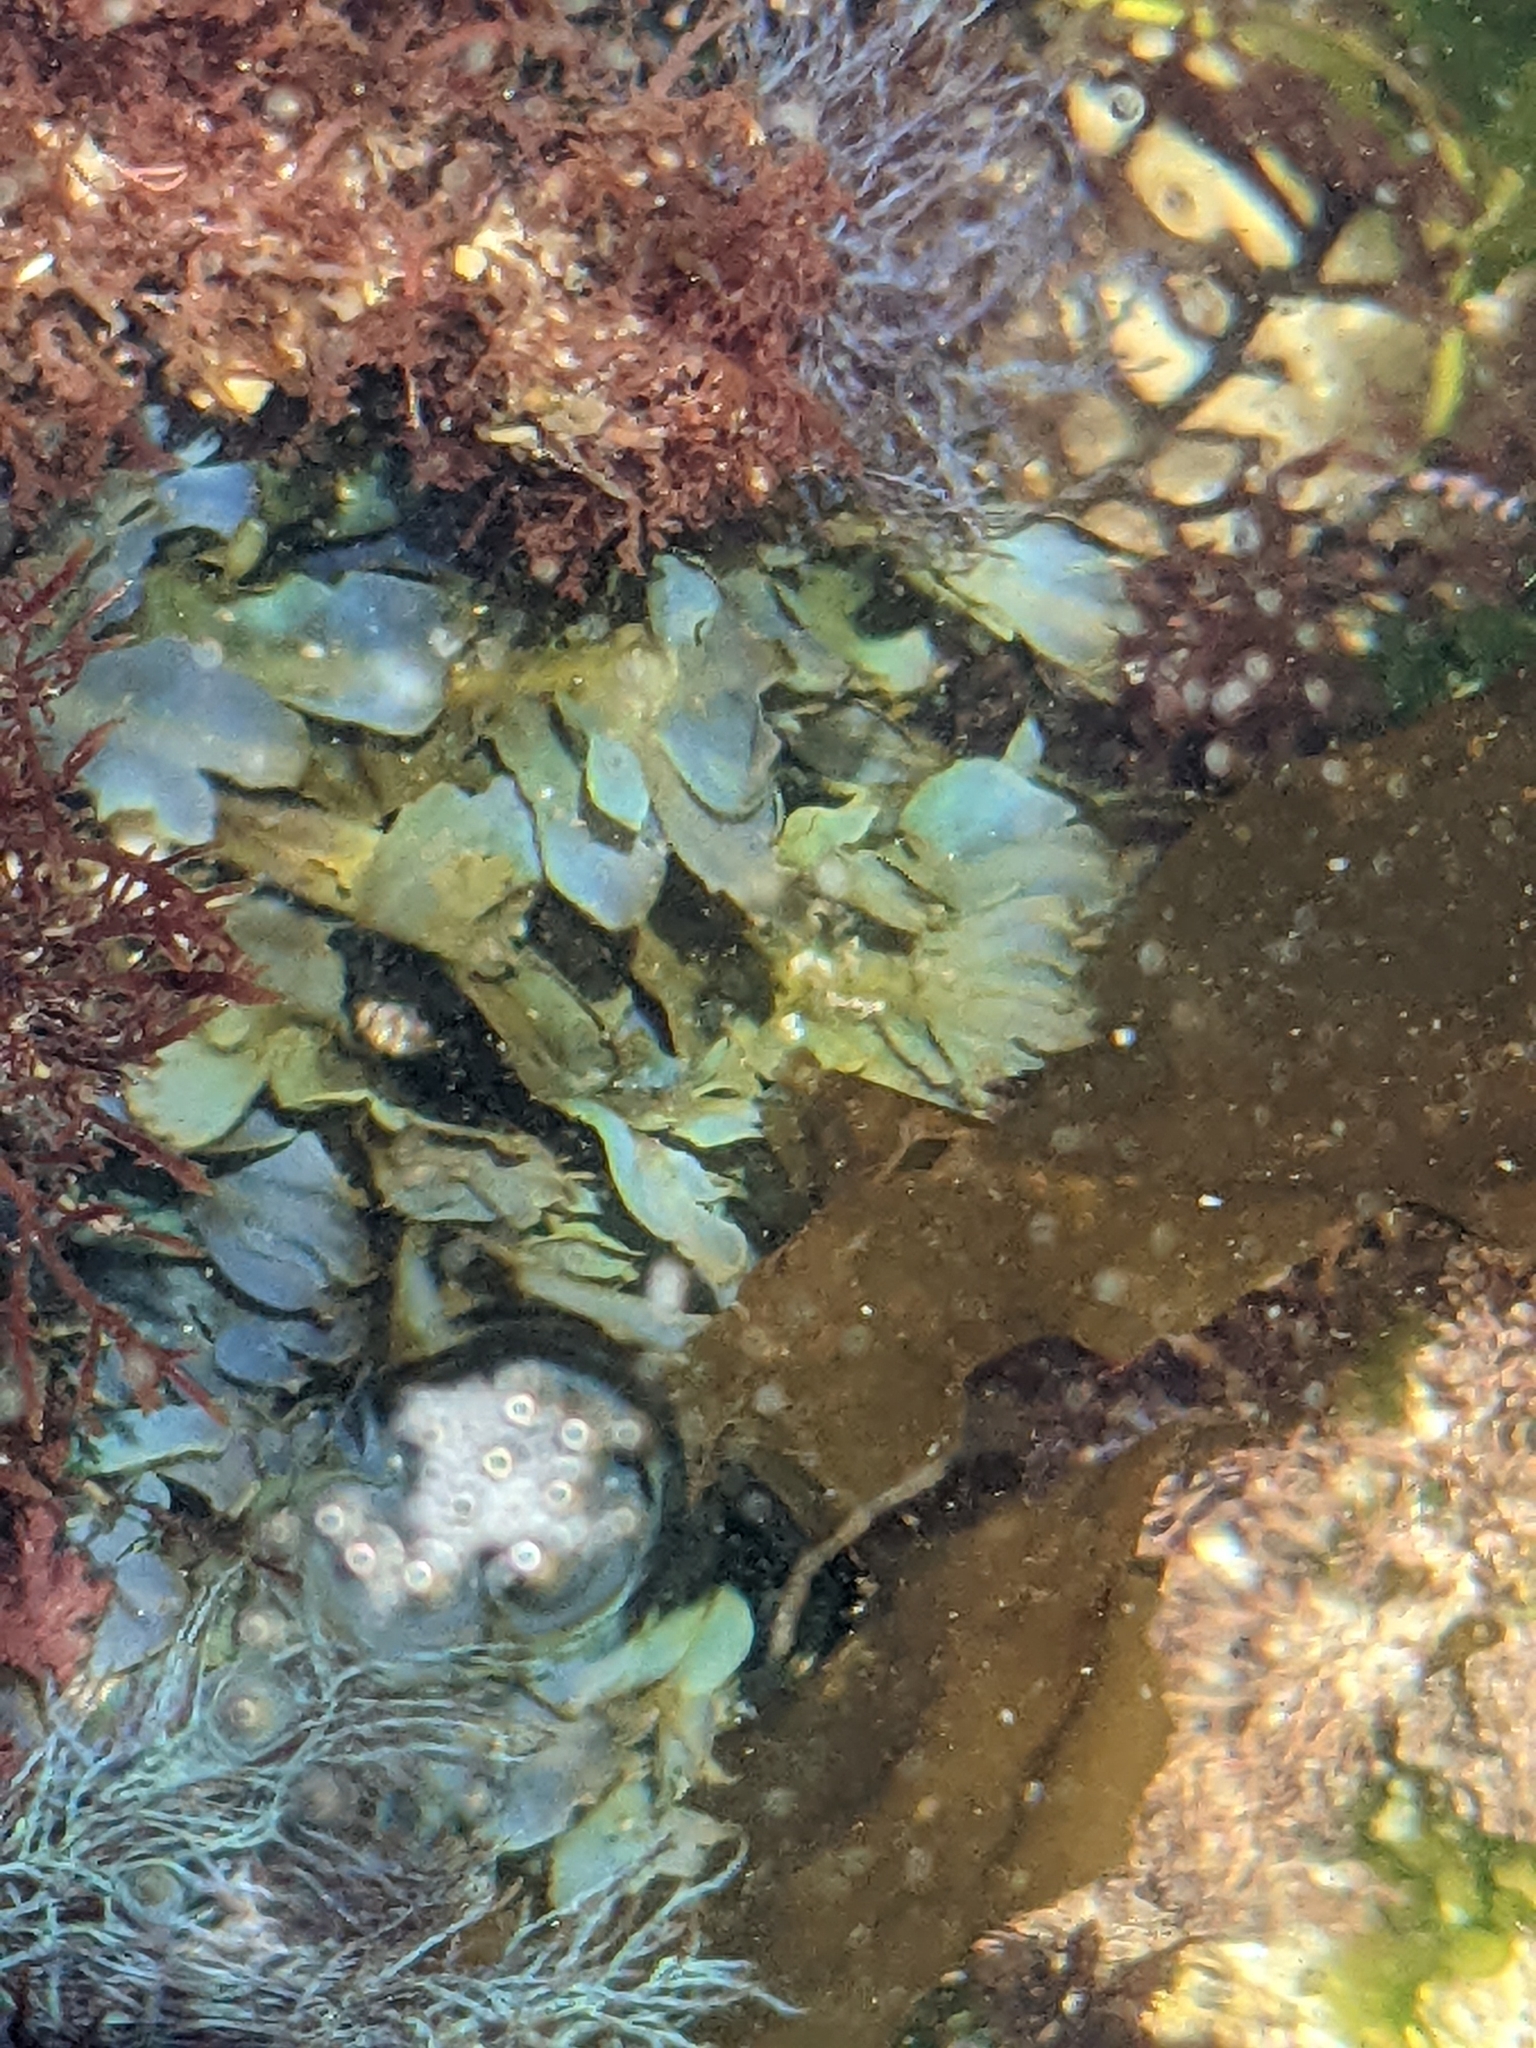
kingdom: Chromista
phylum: Ochrophyta
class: Phaeophyceae
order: Dictyotales
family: Dictyotaceae
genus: Dictyopteris
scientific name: Dictyopteris undulata
